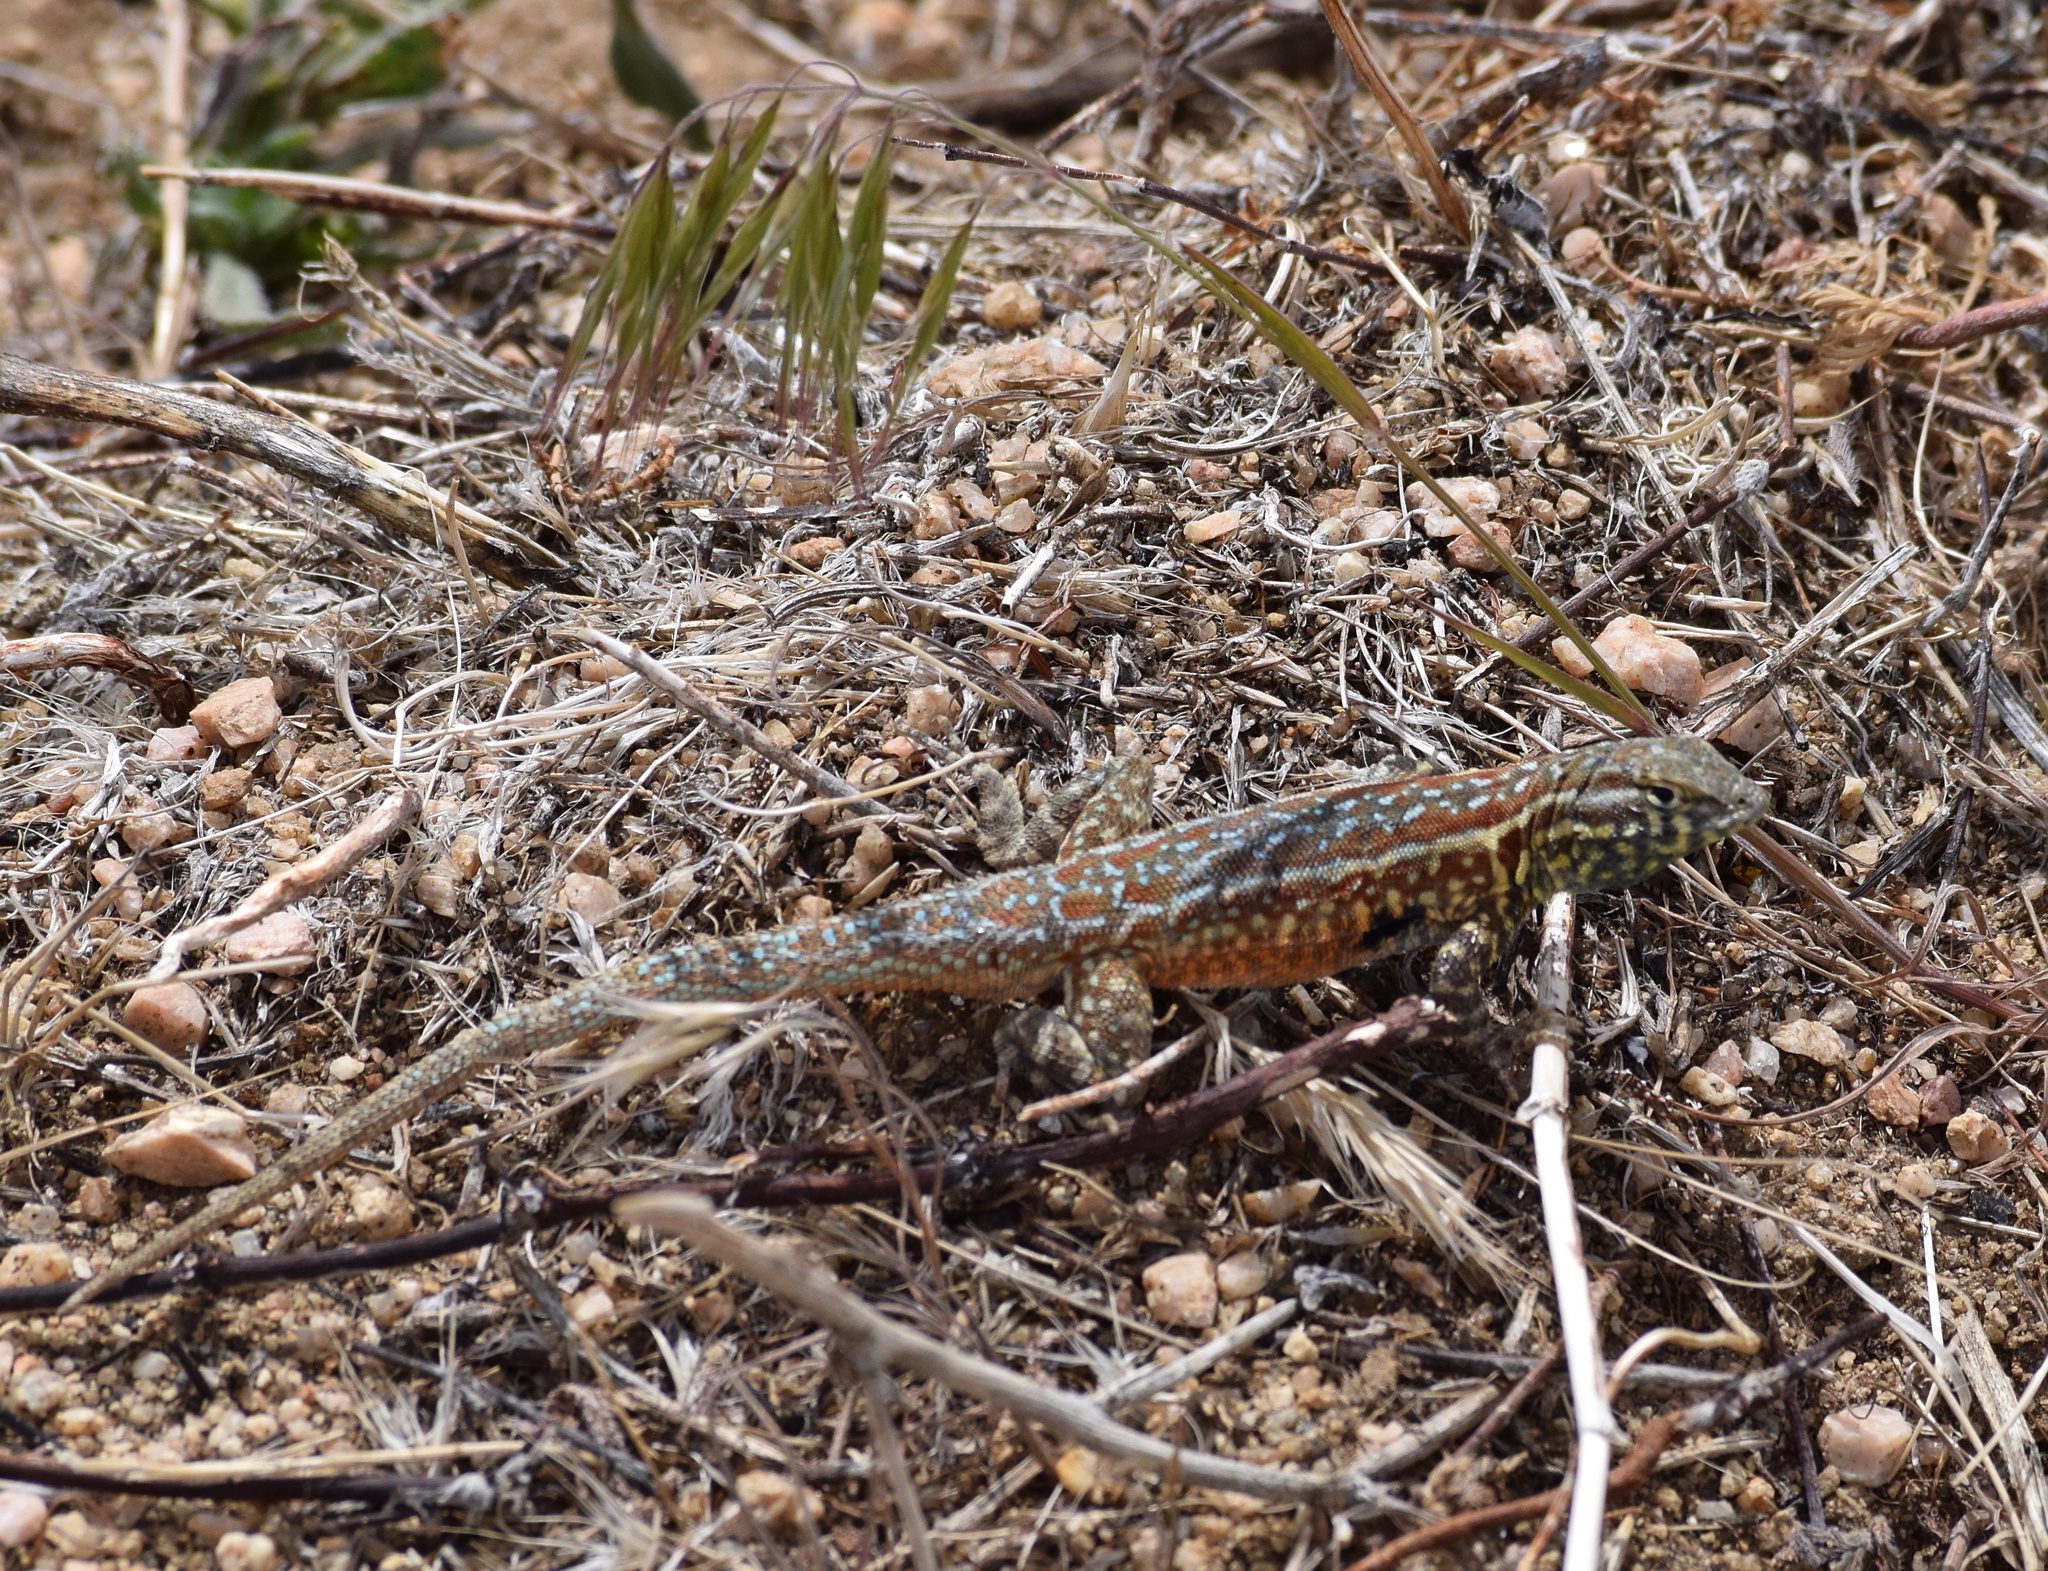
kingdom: Animalia
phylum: Chordata
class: Squamata
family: Phrynosomatidae
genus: Uta
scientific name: Uta stansburiana
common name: Side-blotched lizard
